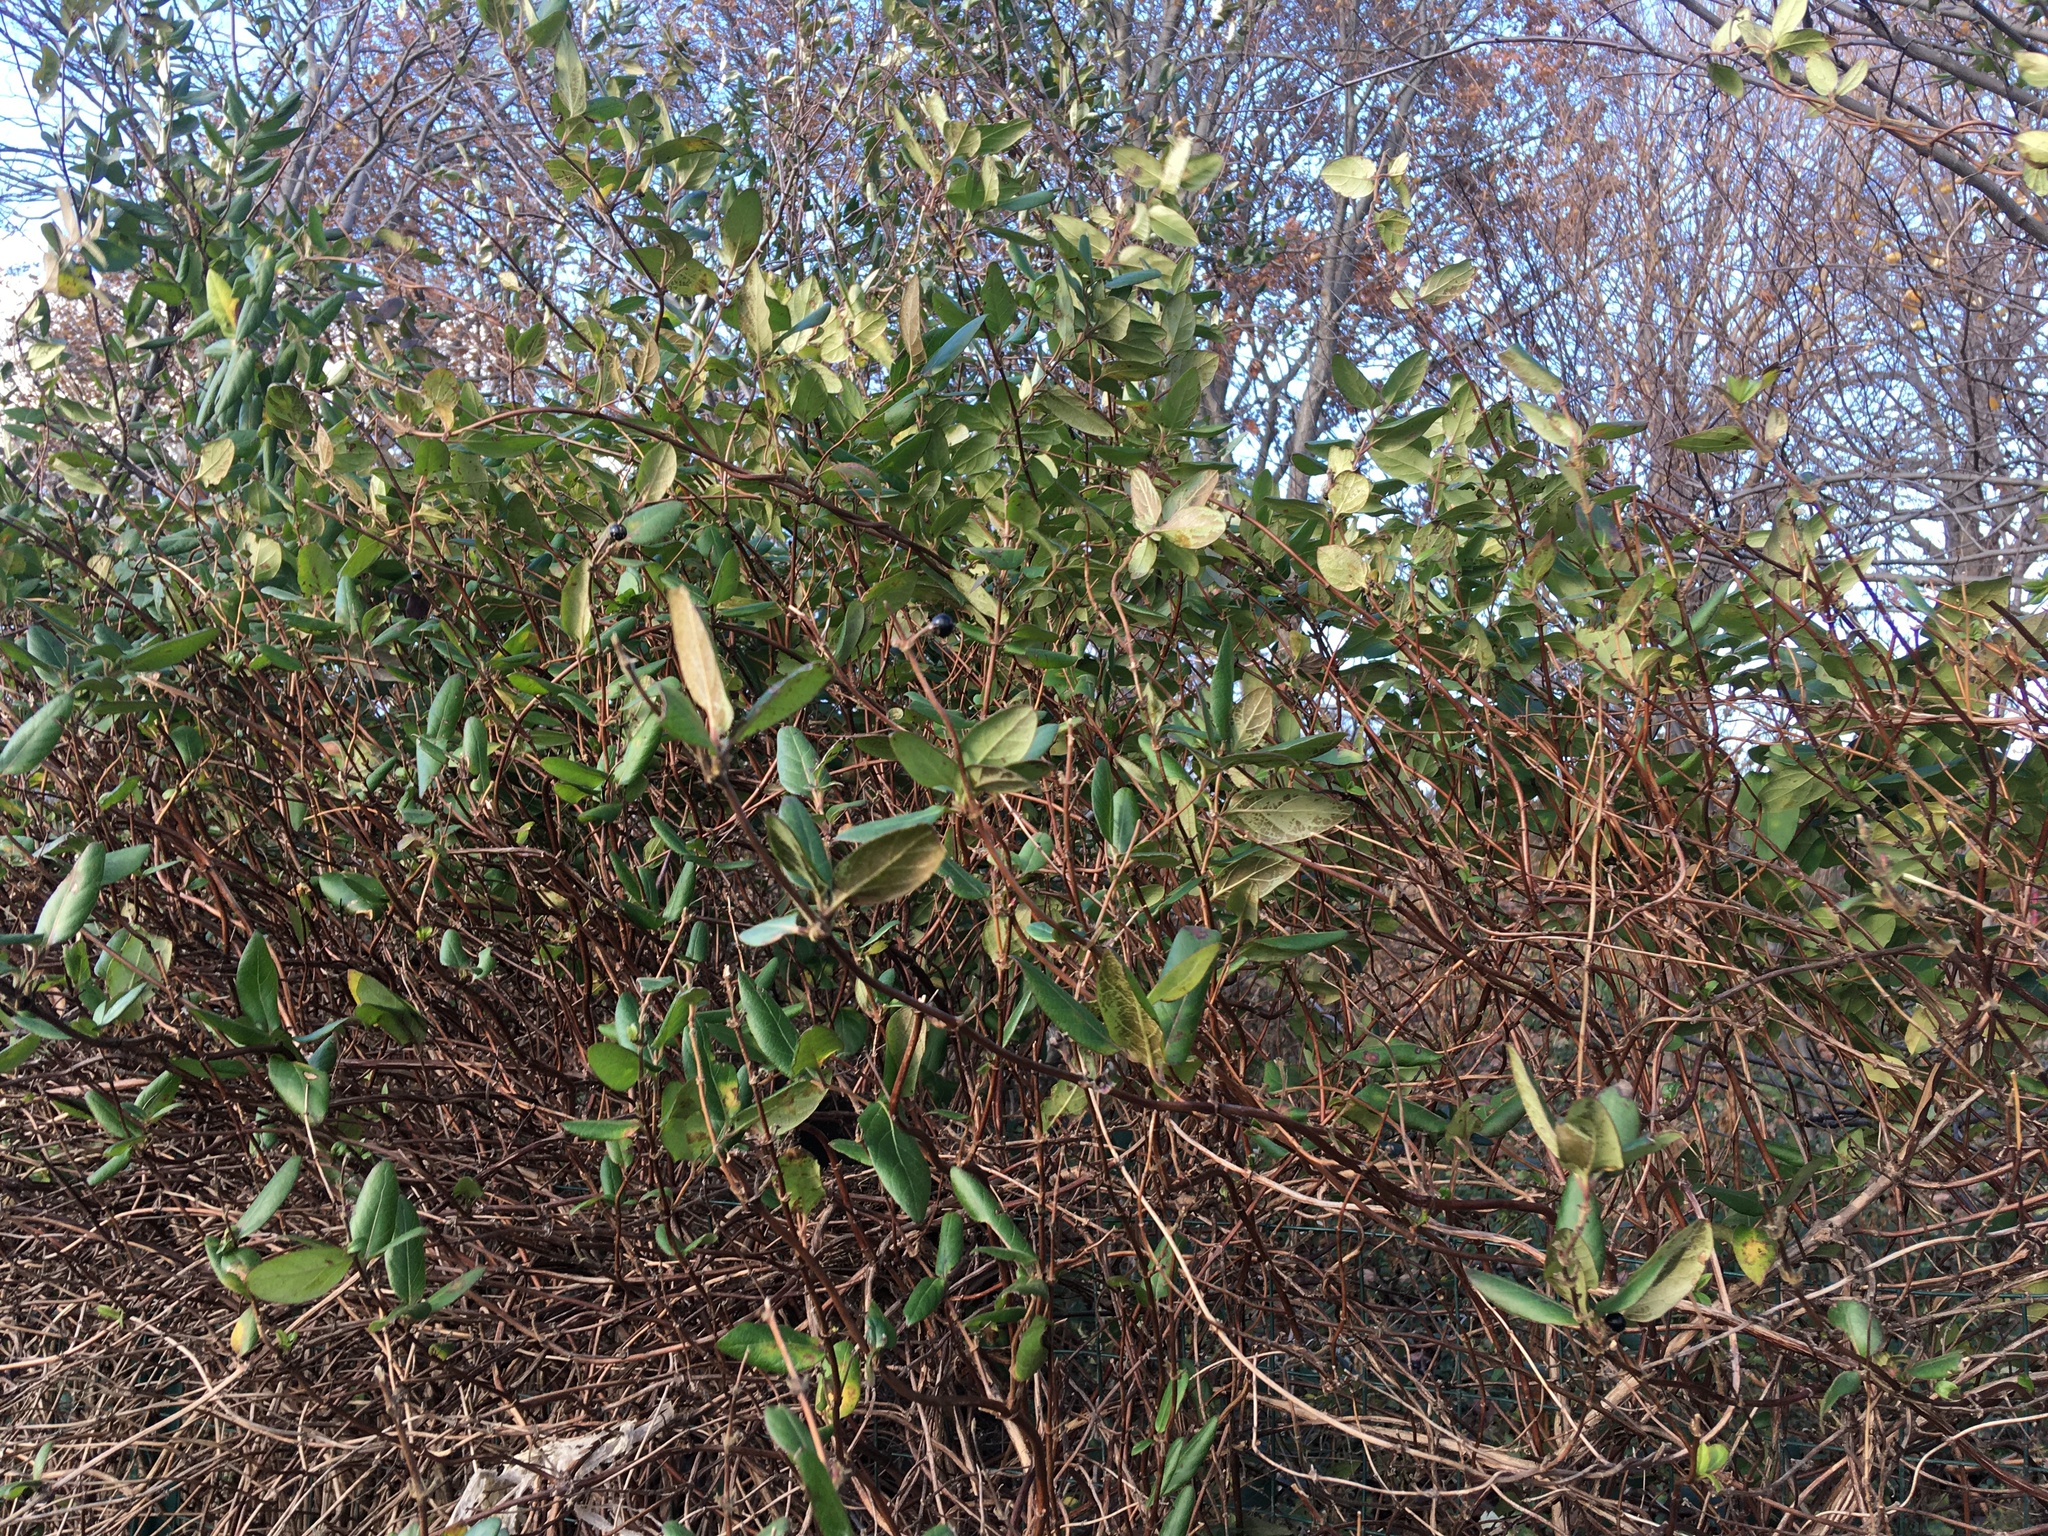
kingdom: Plantae
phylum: Tracheophyta
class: Magnoliopsida
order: Dipsacales
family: Caprifoliaceae
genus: Lonicera
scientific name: Lonicera japonica
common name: Japanese honeysuckle
